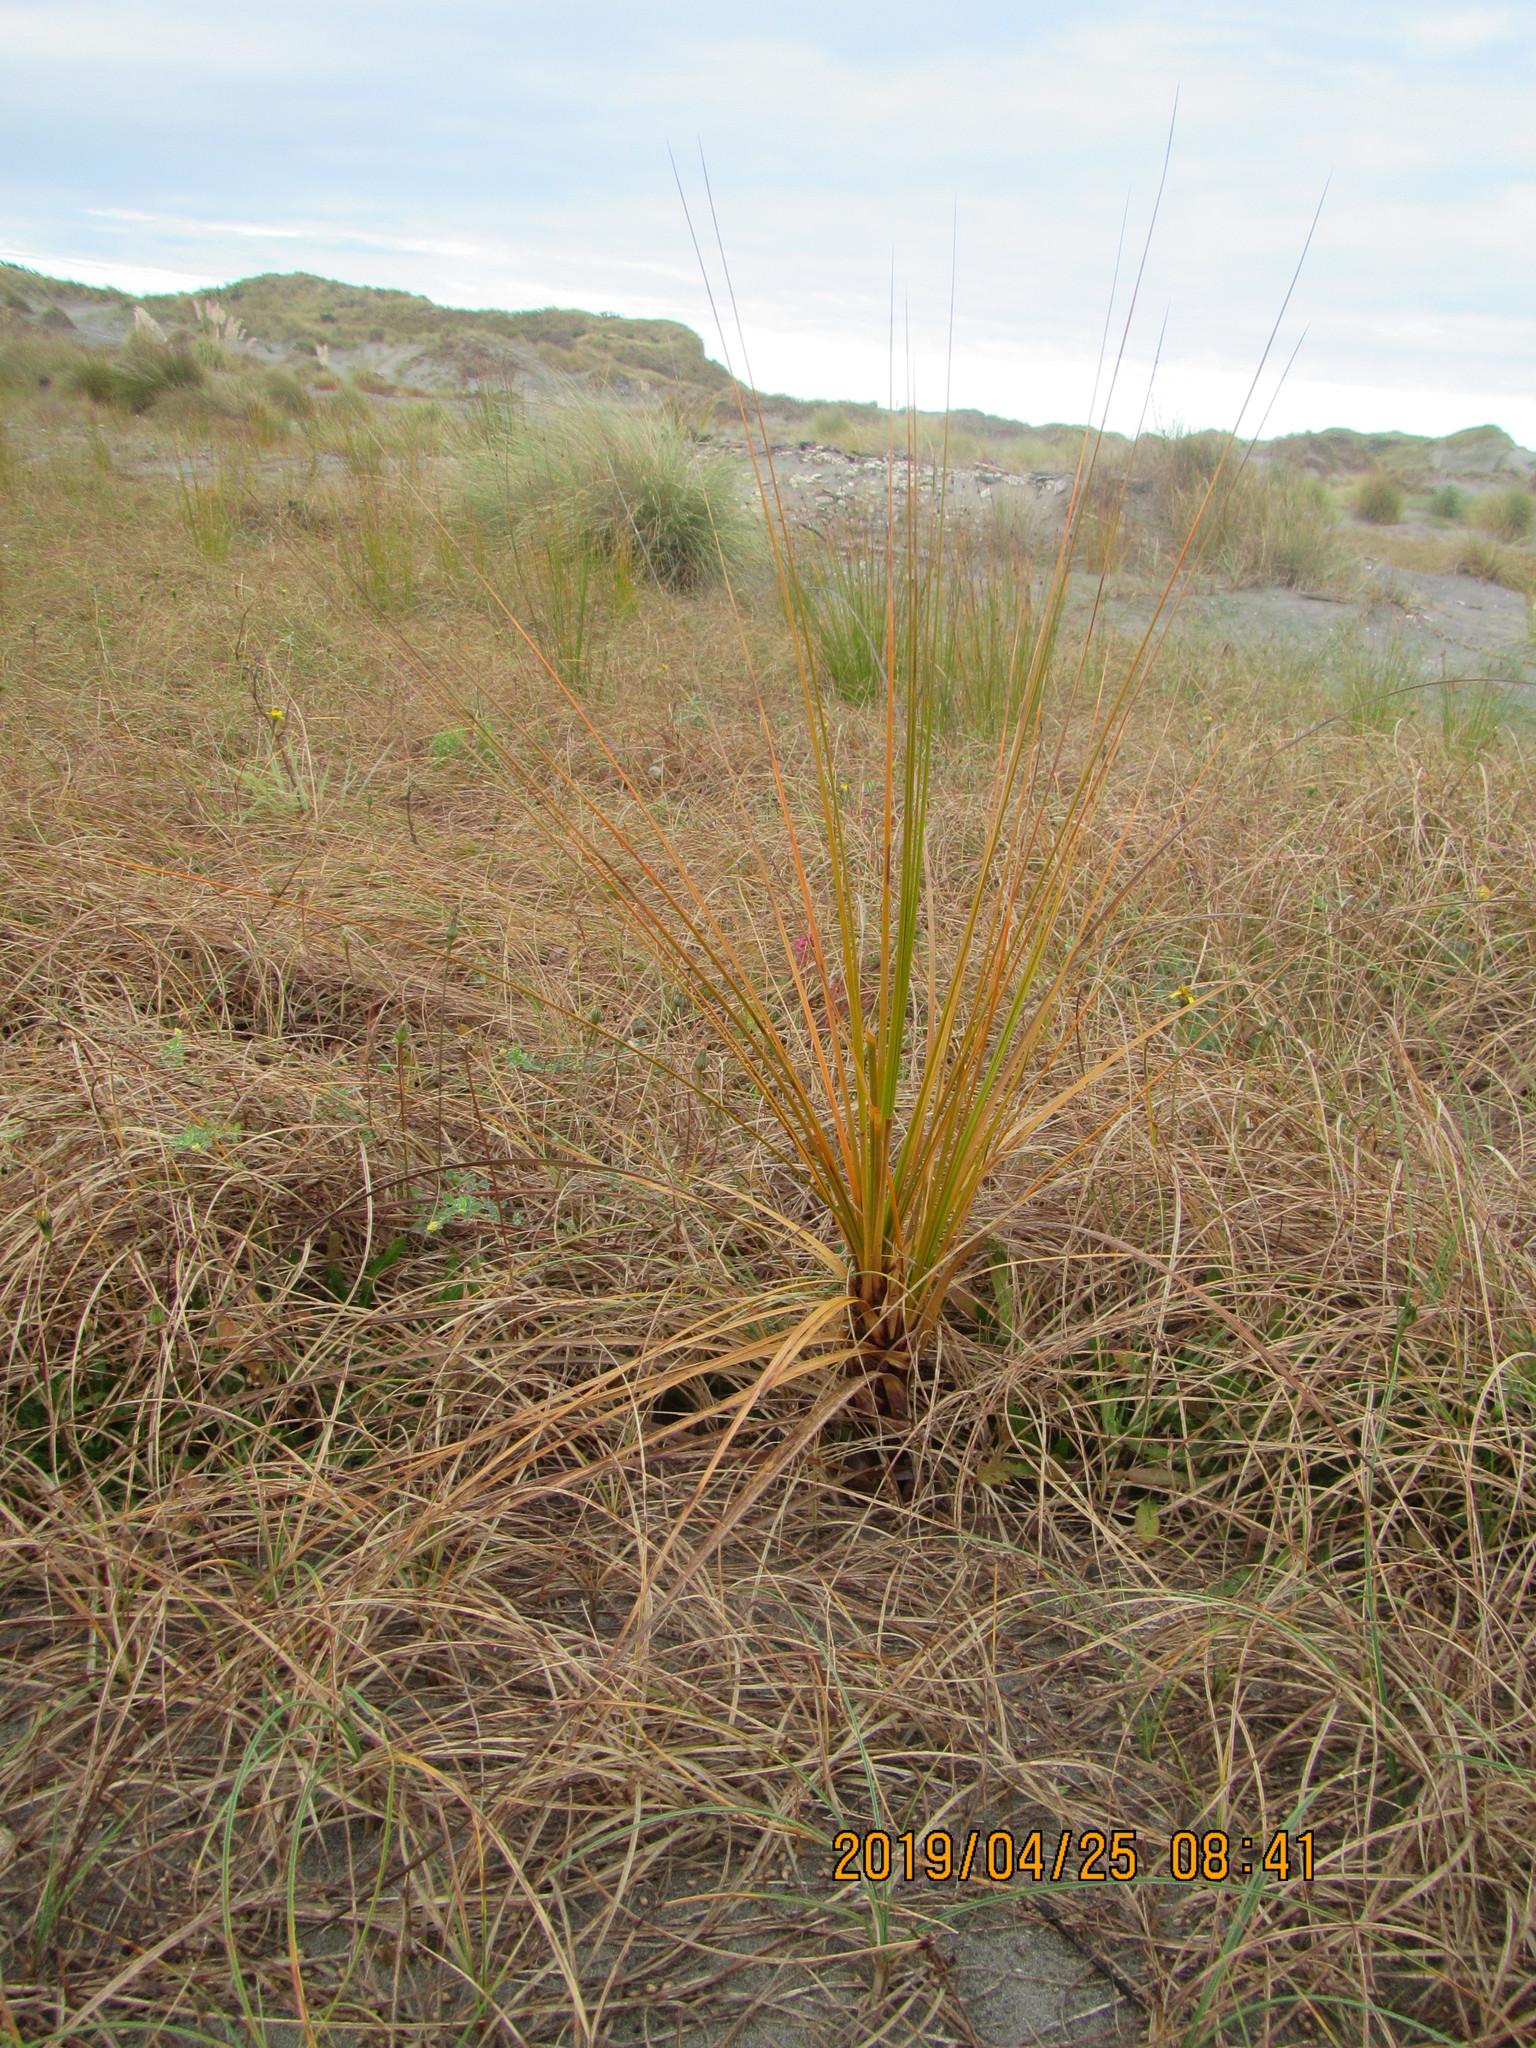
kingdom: Plantae
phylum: Tracheophyta
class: Liliopsida
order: Poales
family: Cyperaceae
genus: Ficinia
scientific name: Ficinia spiralis
